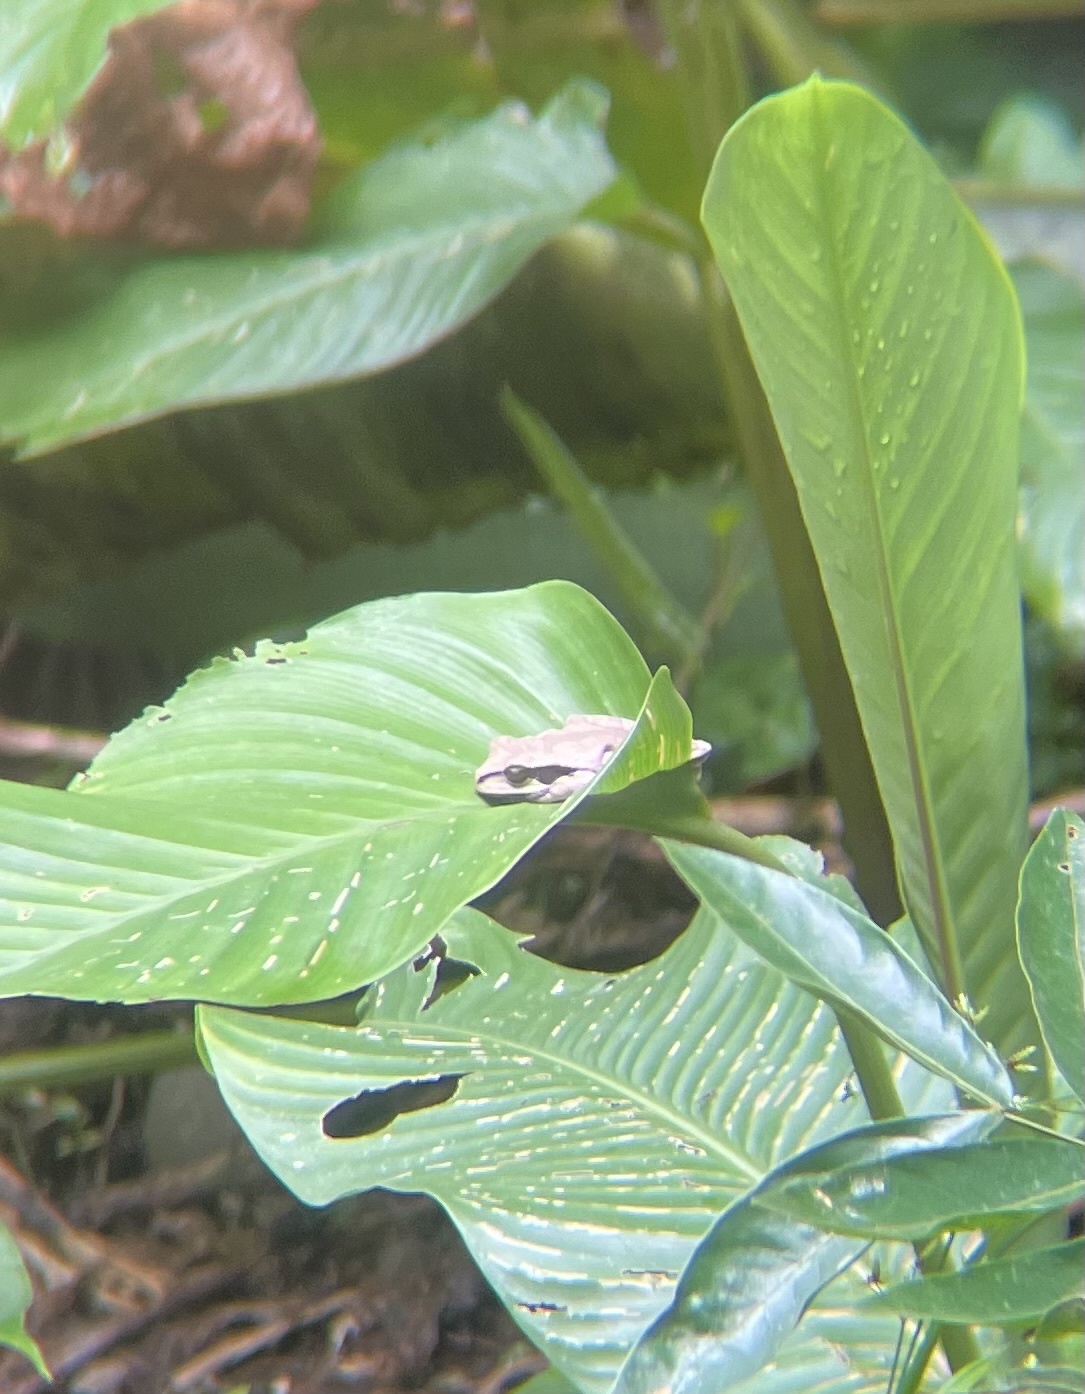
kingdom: Animalia
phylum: Chordata
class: Amphibia
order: Anura
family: Hylidae
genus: Smilisca
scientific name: Smilisca phaeota
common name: Central american smilisca
